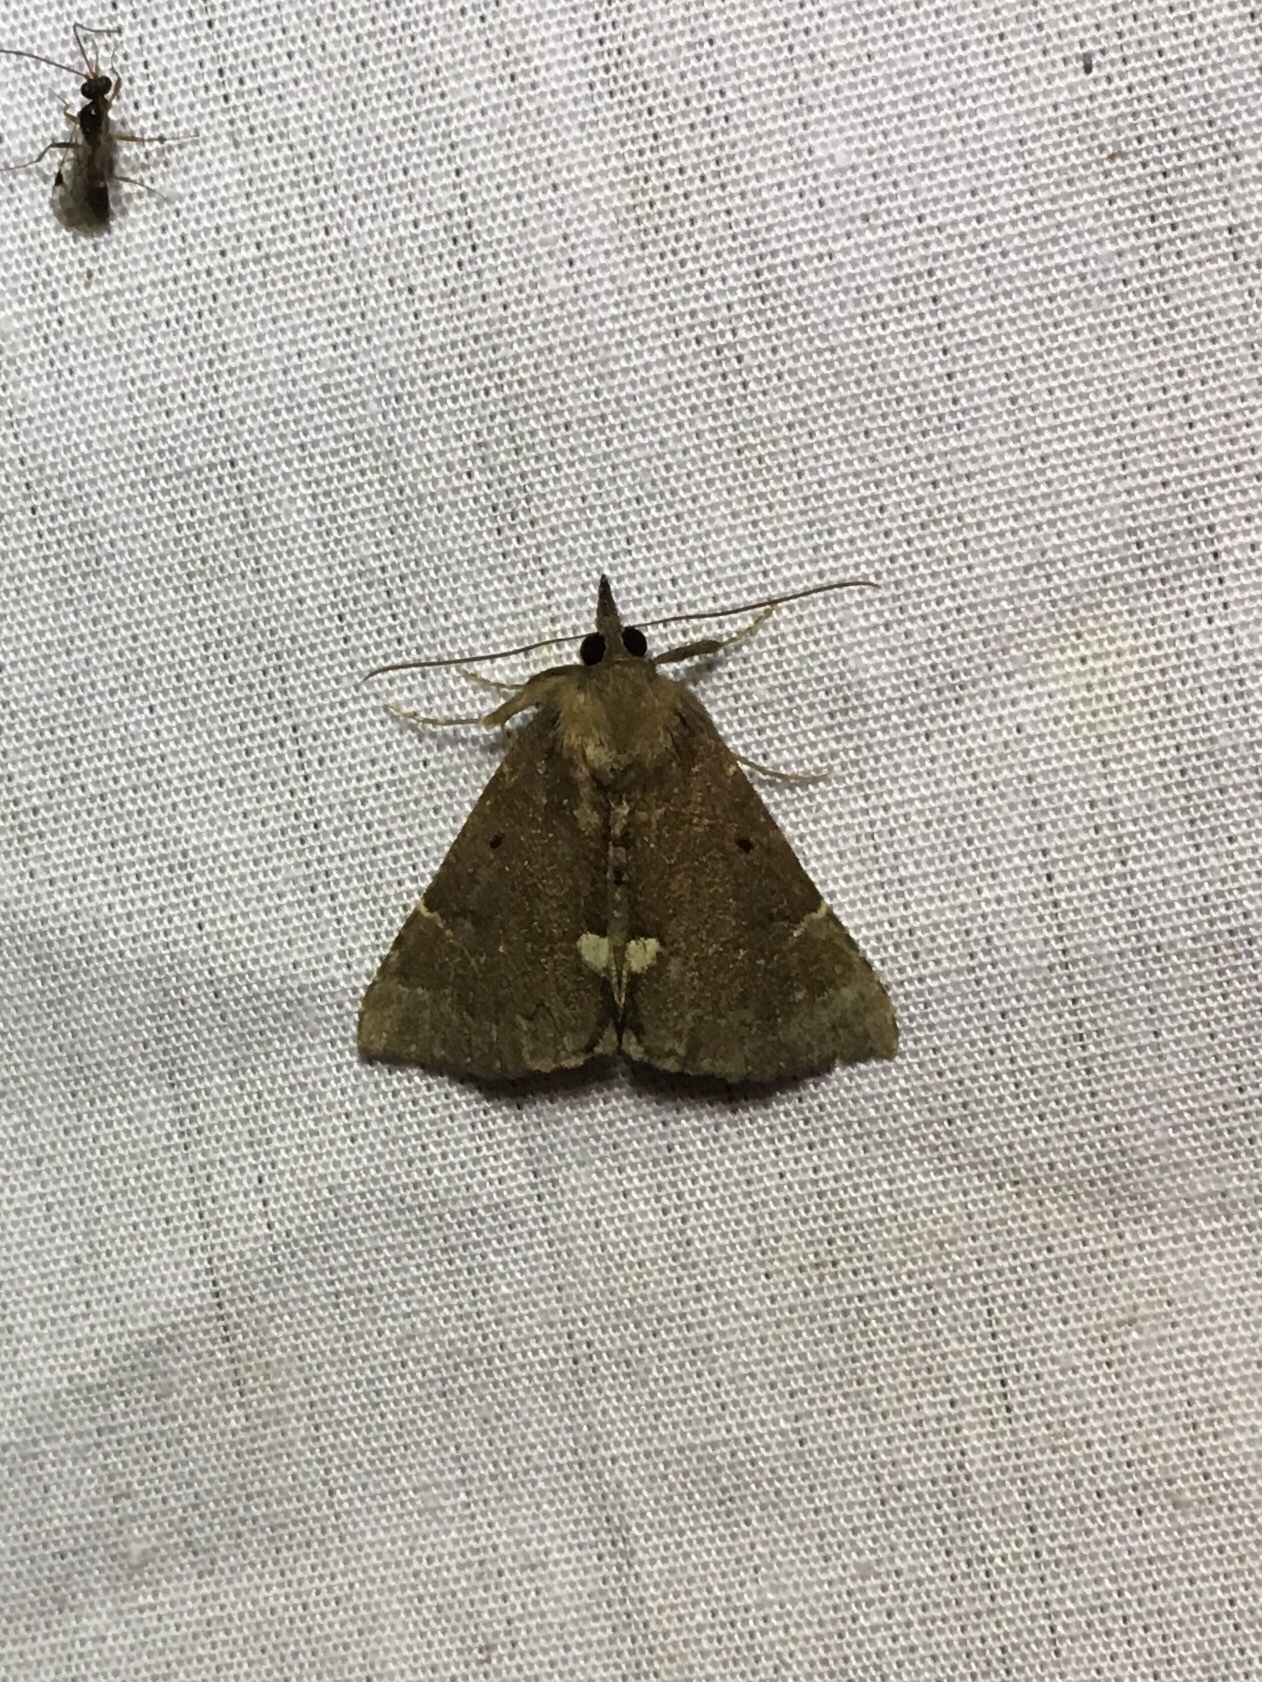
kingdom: Animalia
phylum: Arthropoda
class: Insecta
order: Lepidoptera
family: Erebidae
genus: Hypena
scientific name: Hypena bijugalis
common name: Dimorphic bomolocha moth
